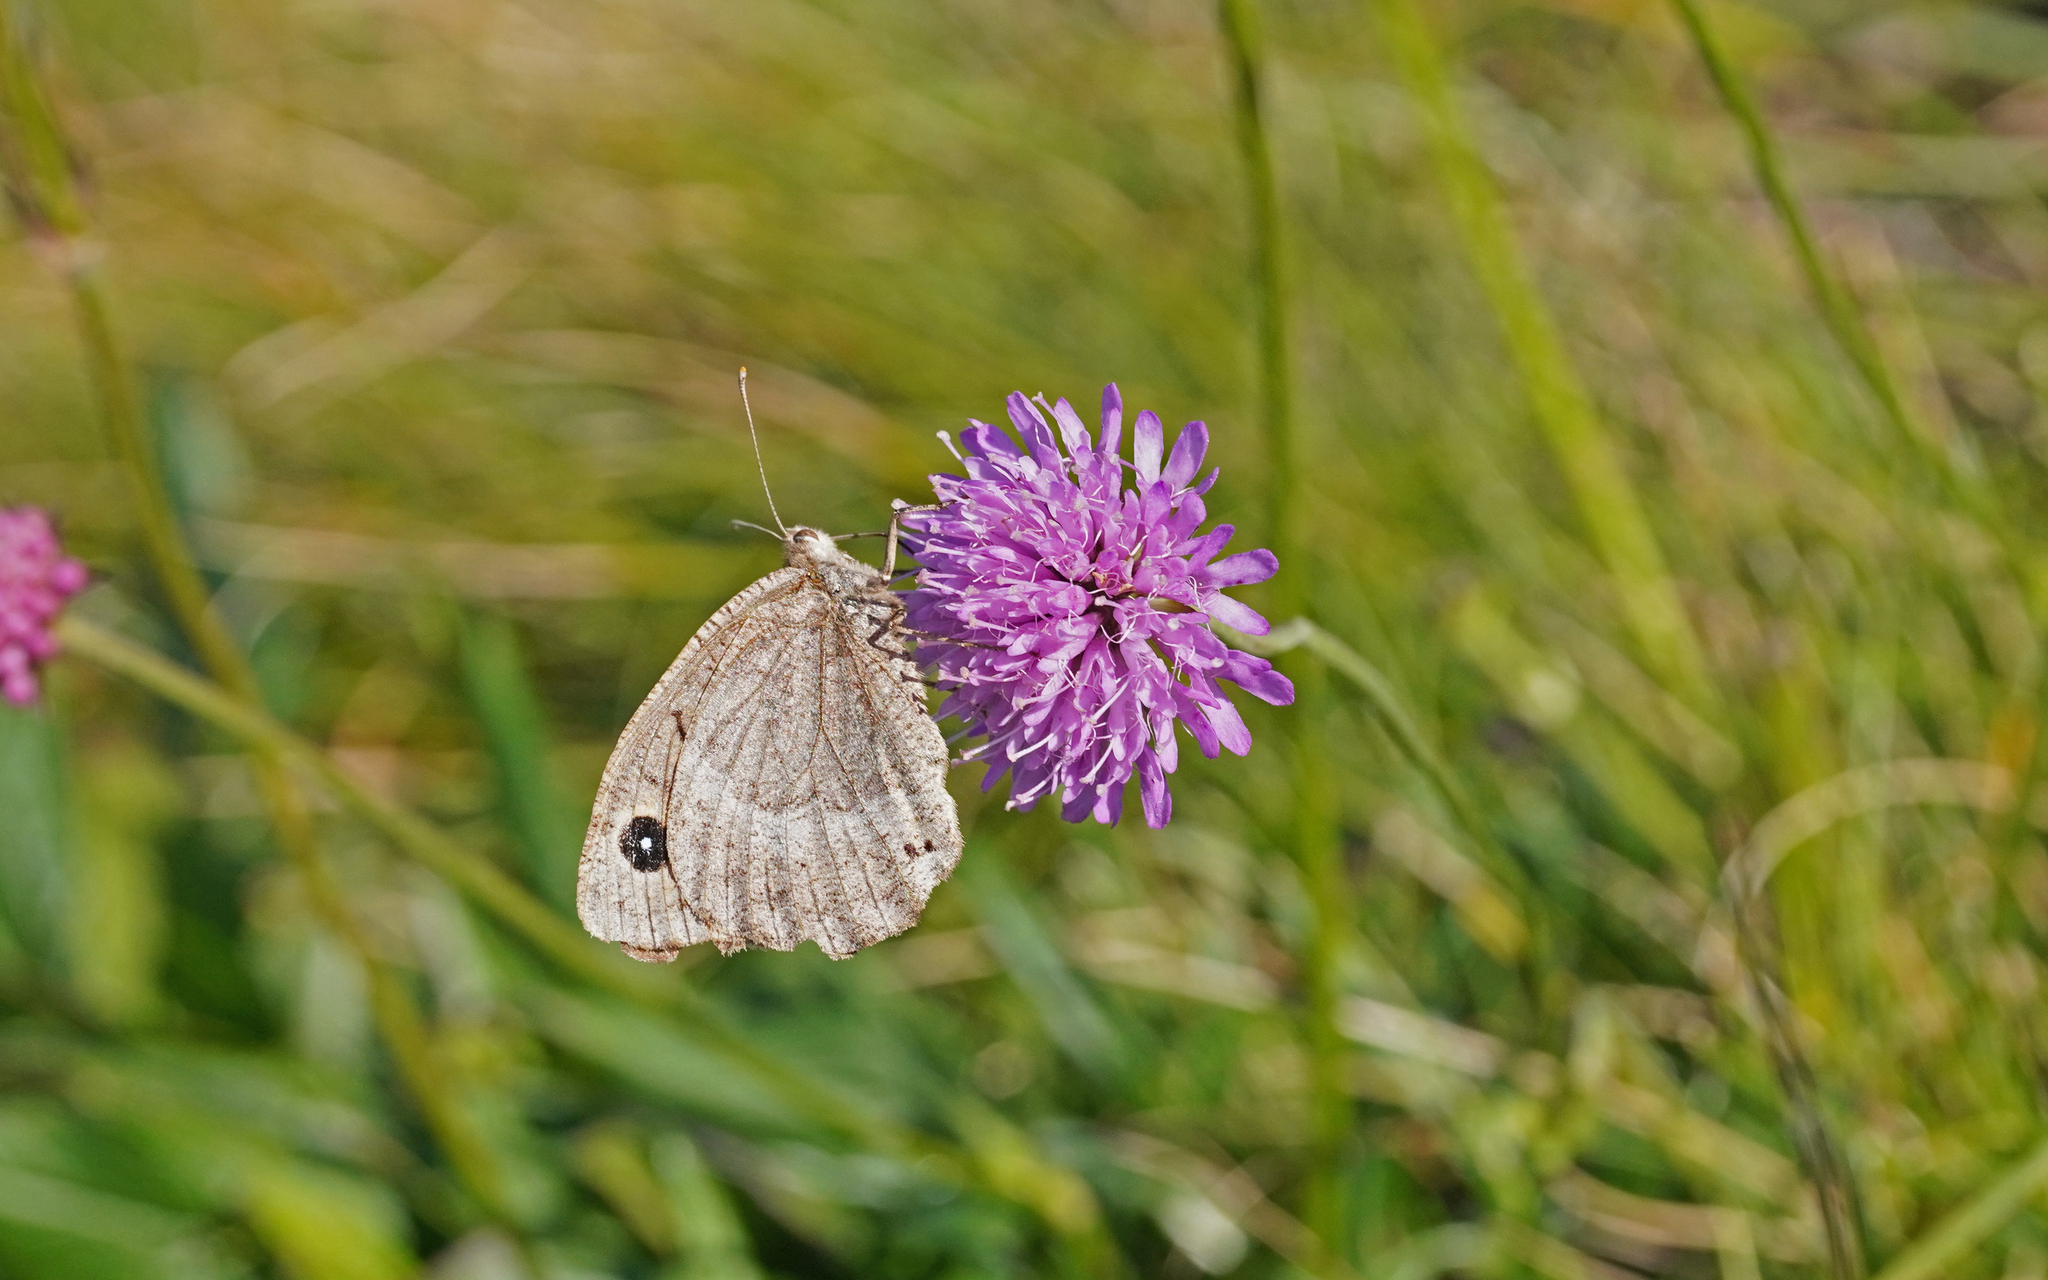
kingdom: Animalia
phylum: Arthropoda
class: Insecta
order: Lepidoptera
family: Nymphalidae
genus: Satyrus
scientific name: Satyrus ferula
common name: Great sooty satyr
